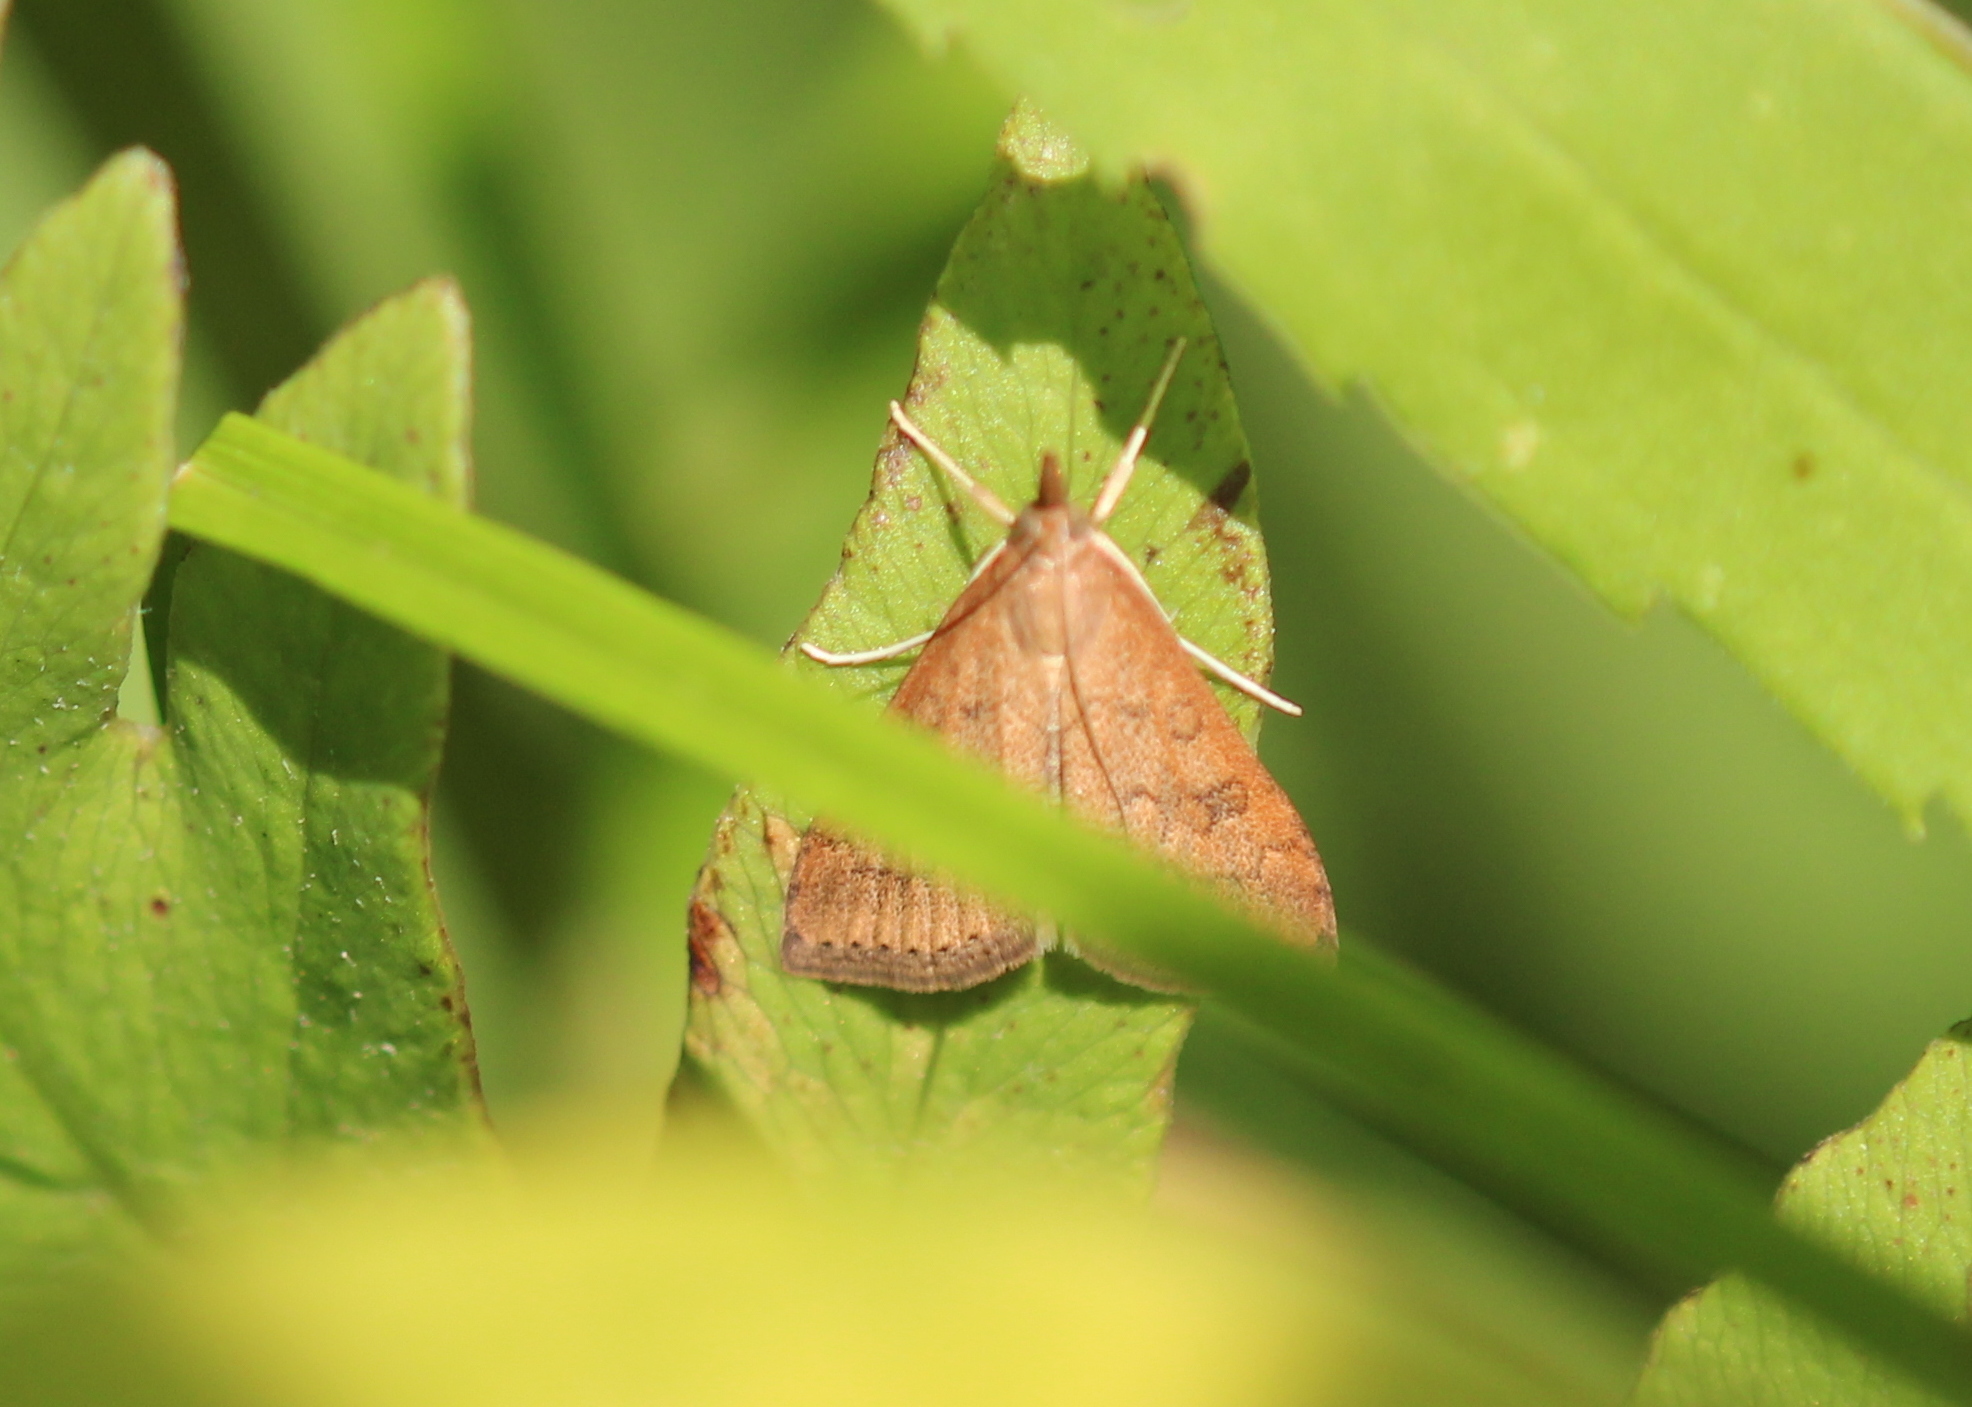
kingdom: Animalia
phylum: Arthropoda
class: Insecta
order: Lepidoptera
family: Crambidae
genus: Udea
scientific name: Udea rubigalis
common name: Celery leaftier moth
